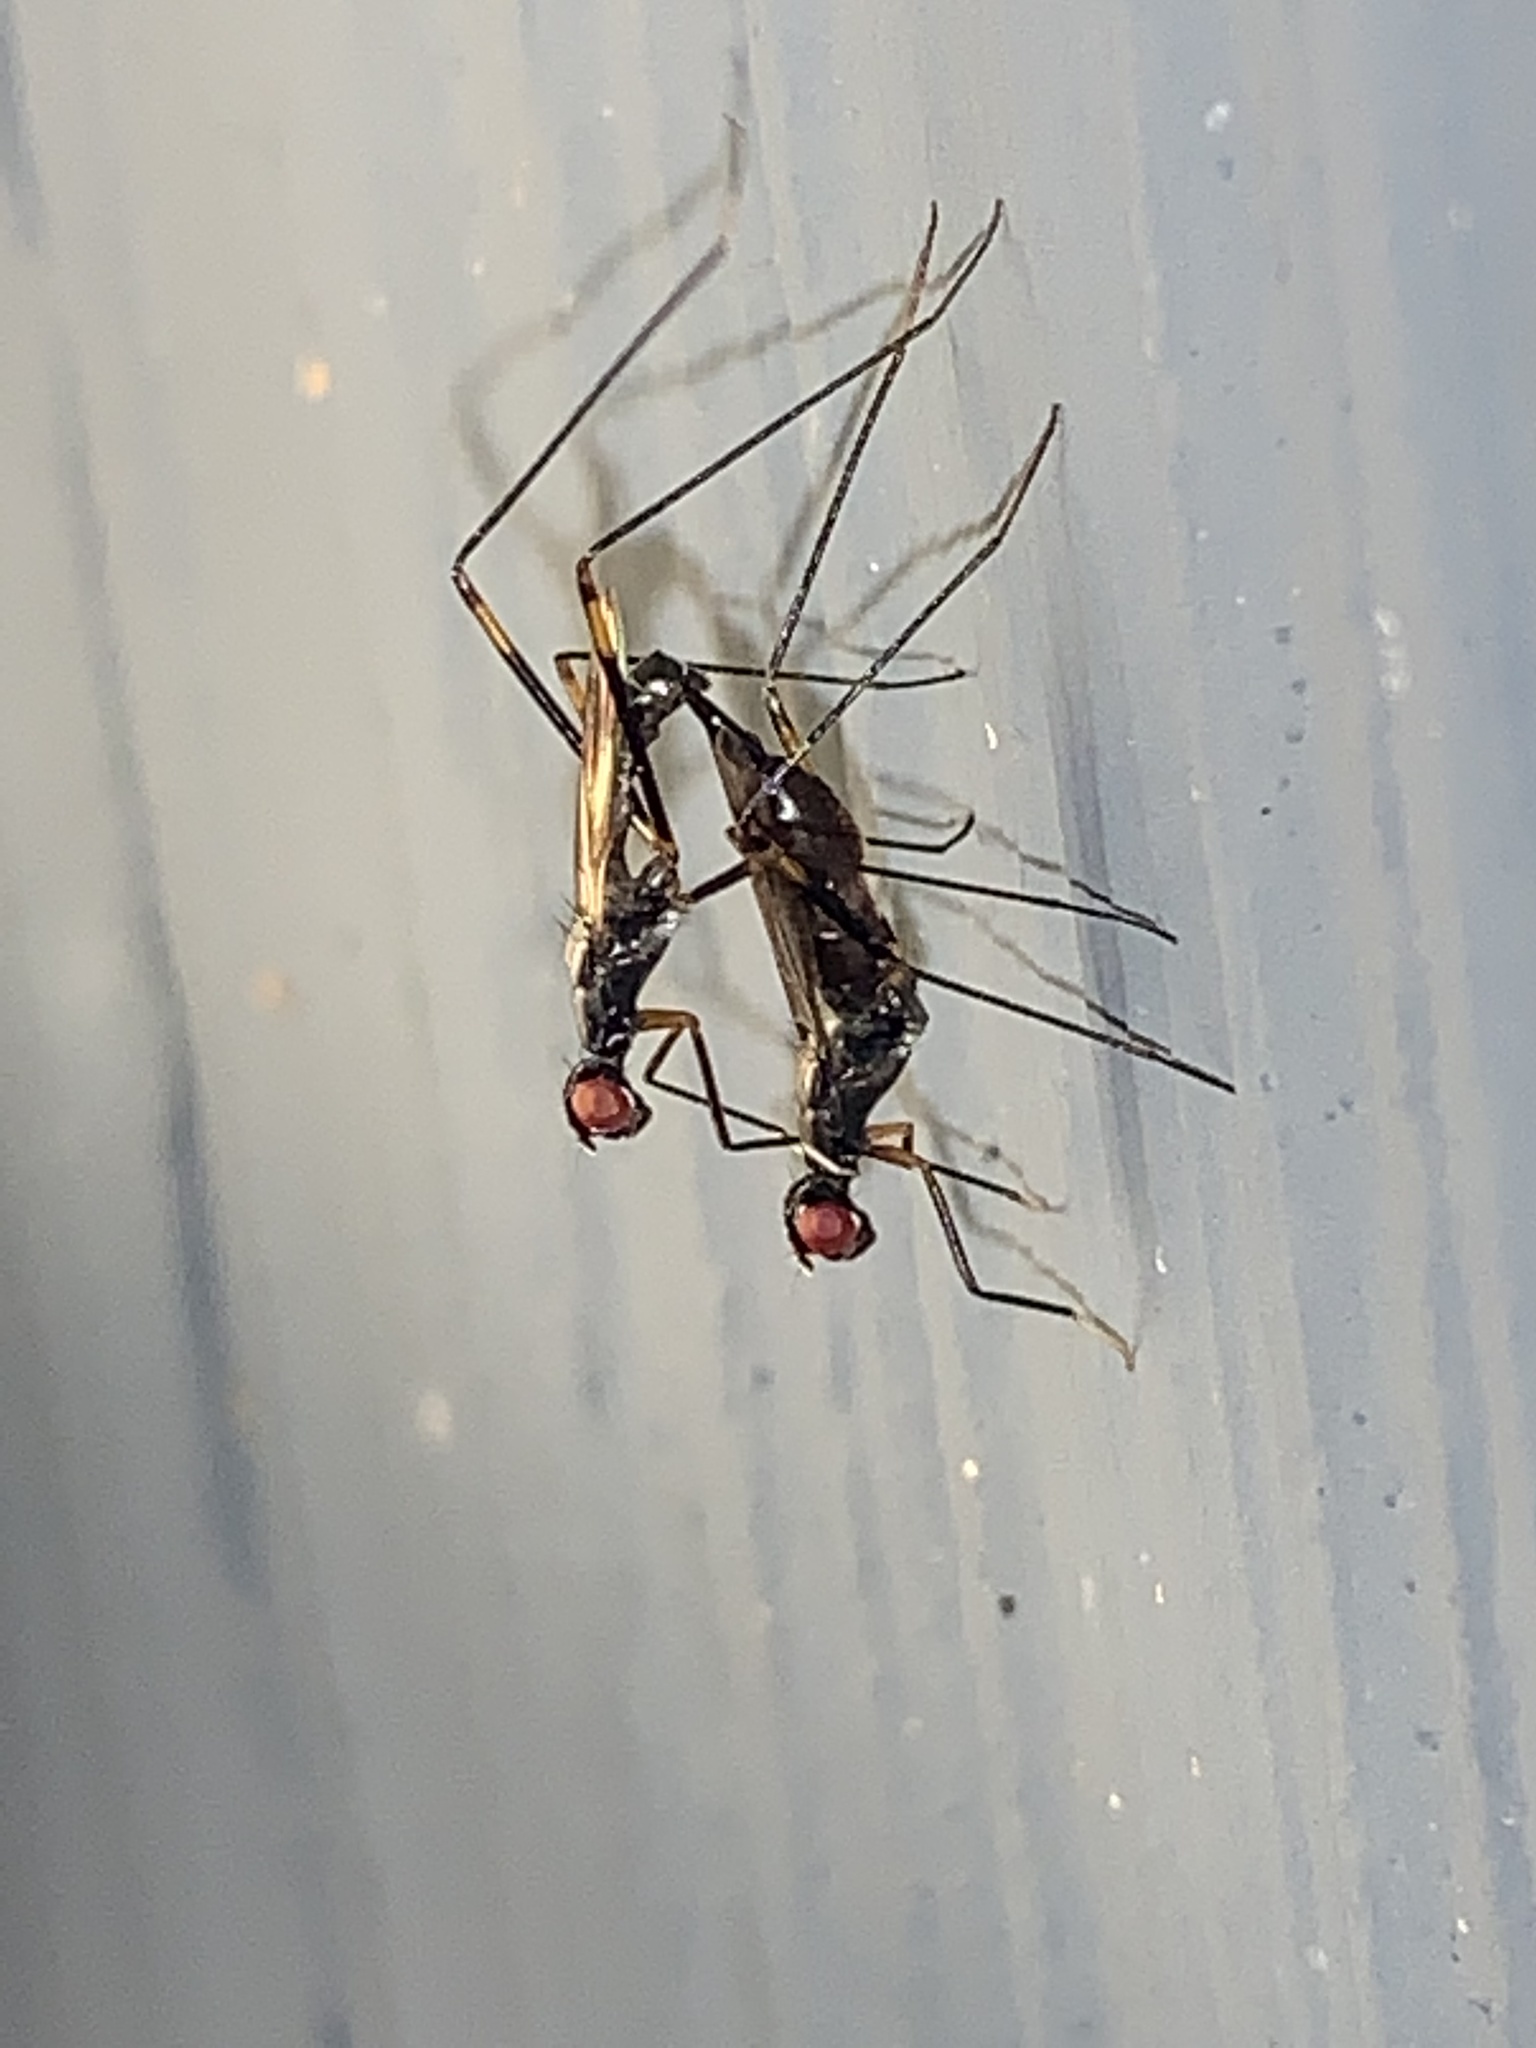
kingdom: Animalia
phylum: Arthropoda
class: Insecta
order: Diptera
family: Micropezidae
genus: Rainieria
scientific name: Rainieria antennaepes
